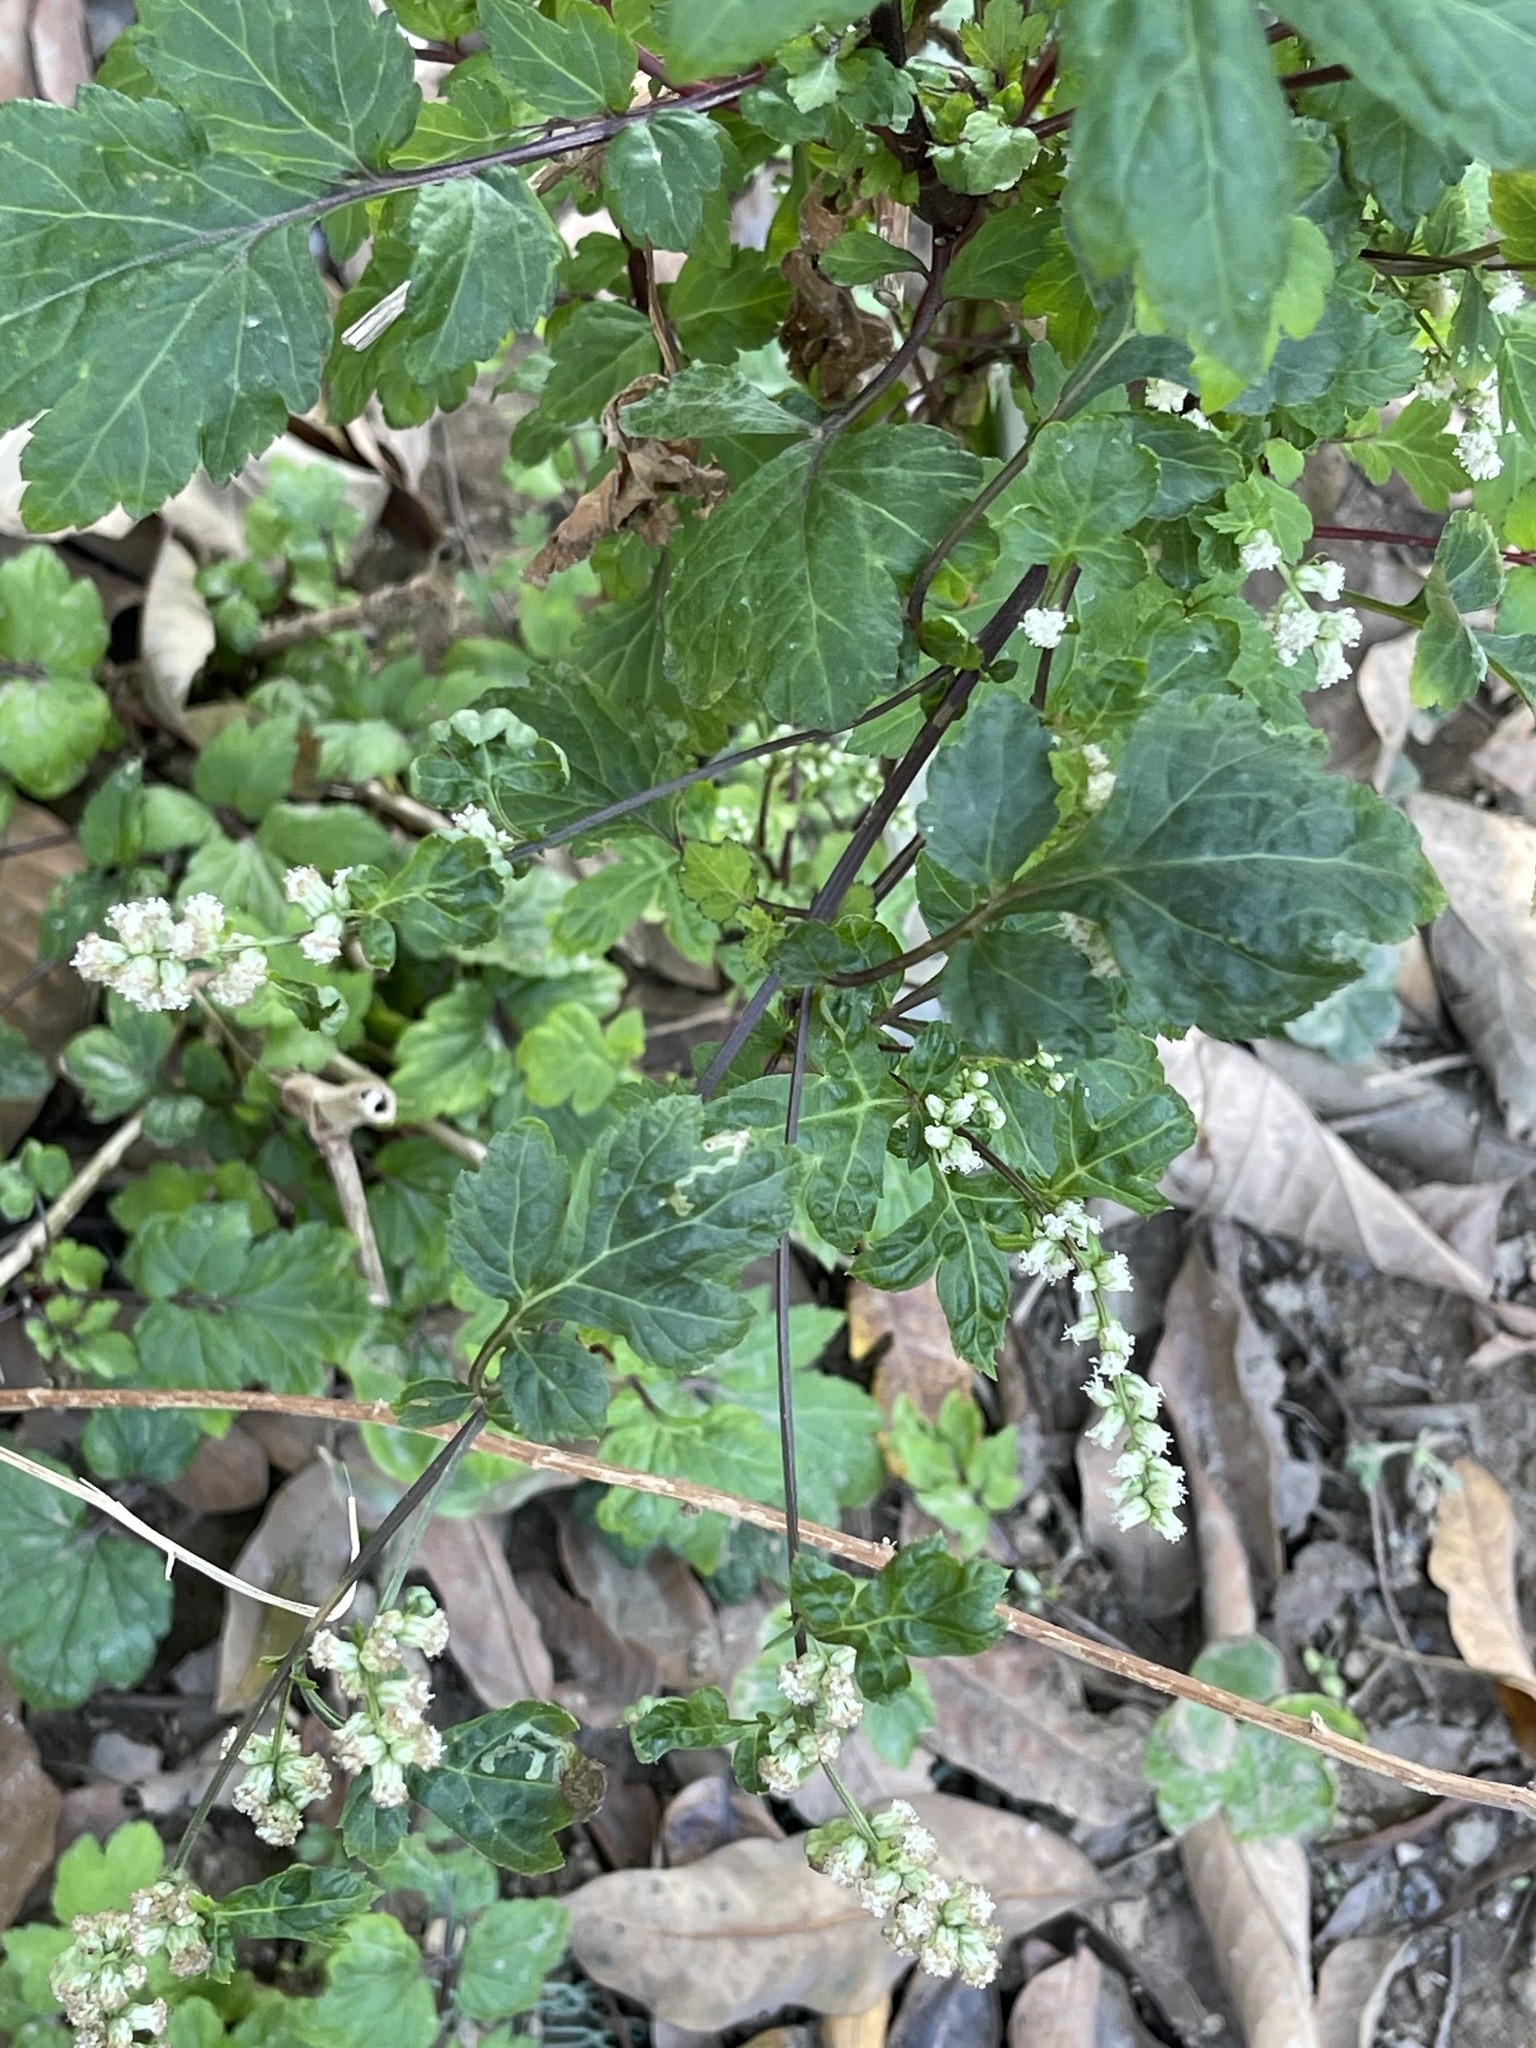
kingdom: Plantae
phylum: Tracheophyta
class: Magnoliopsida
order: Asterales
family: Asteraceae
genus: Artemisia
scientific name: Artemisia lactiflora
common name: White mugwort
